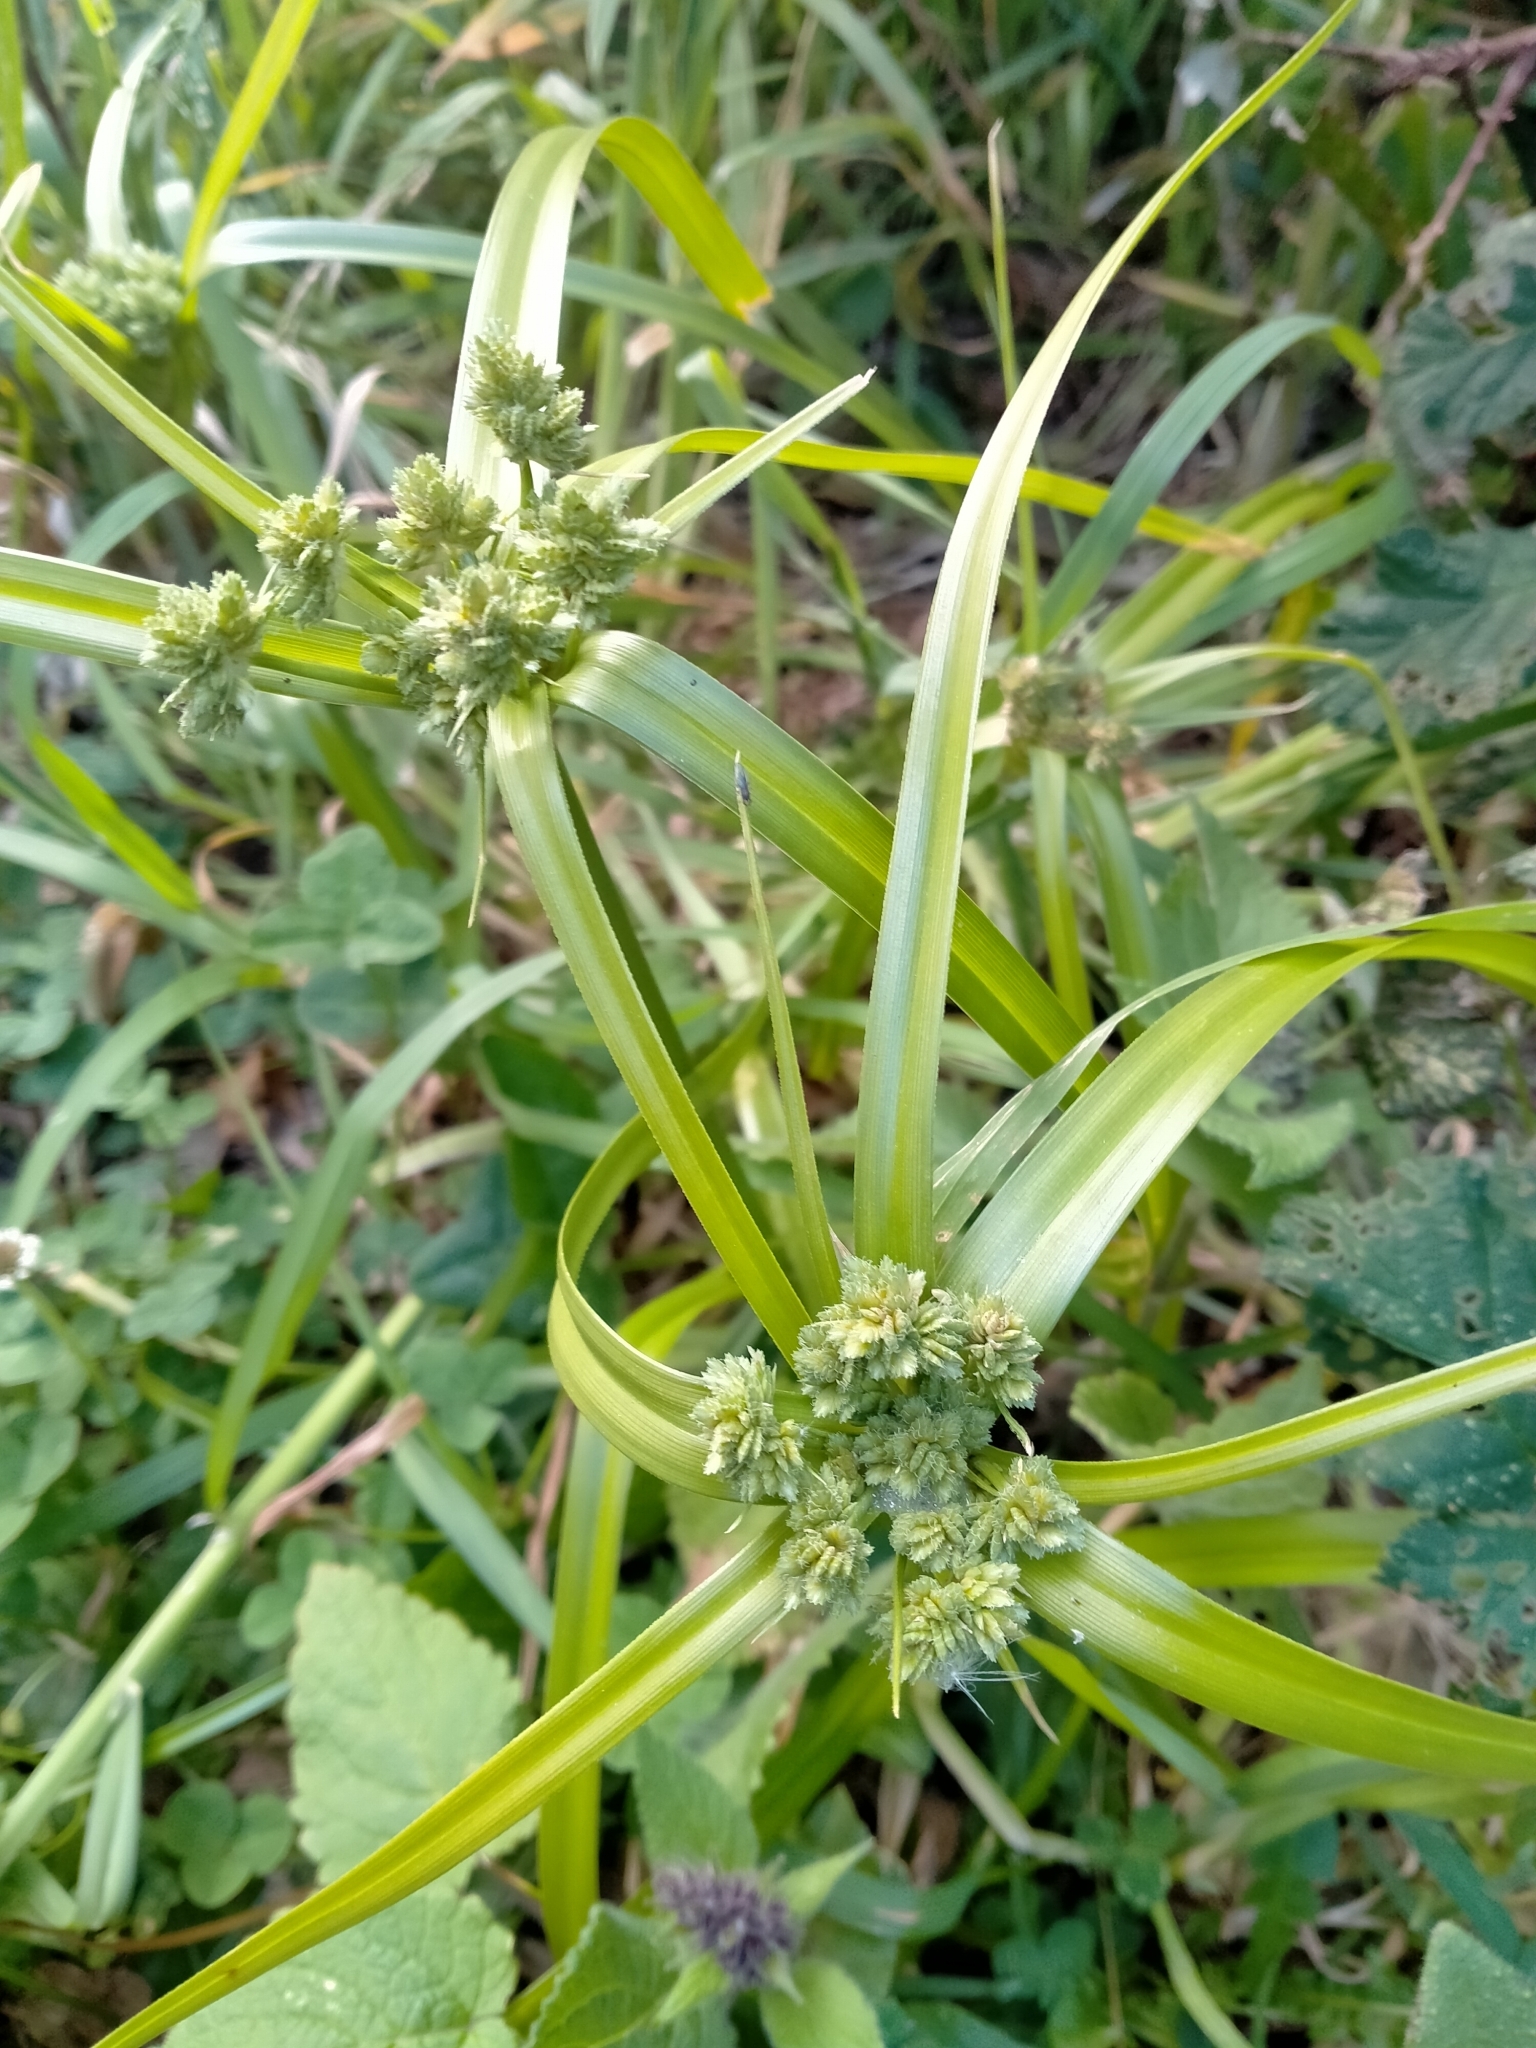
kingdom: Plantae
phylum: Tracheophyta
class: Liliopsida
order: Poales
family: Cyperaceae
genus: Cyperus
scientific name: Cyperus eragrostis
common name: Tall flatsedge
